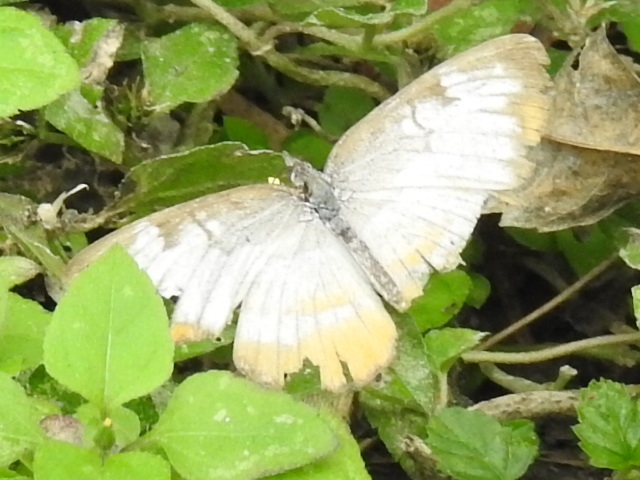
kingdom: Animalia
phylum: Arthropoda
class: Insecta
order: Lepidoptera
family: Nymphalidae
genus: Mestra
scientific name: Mestra amymone
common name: Common mestra
